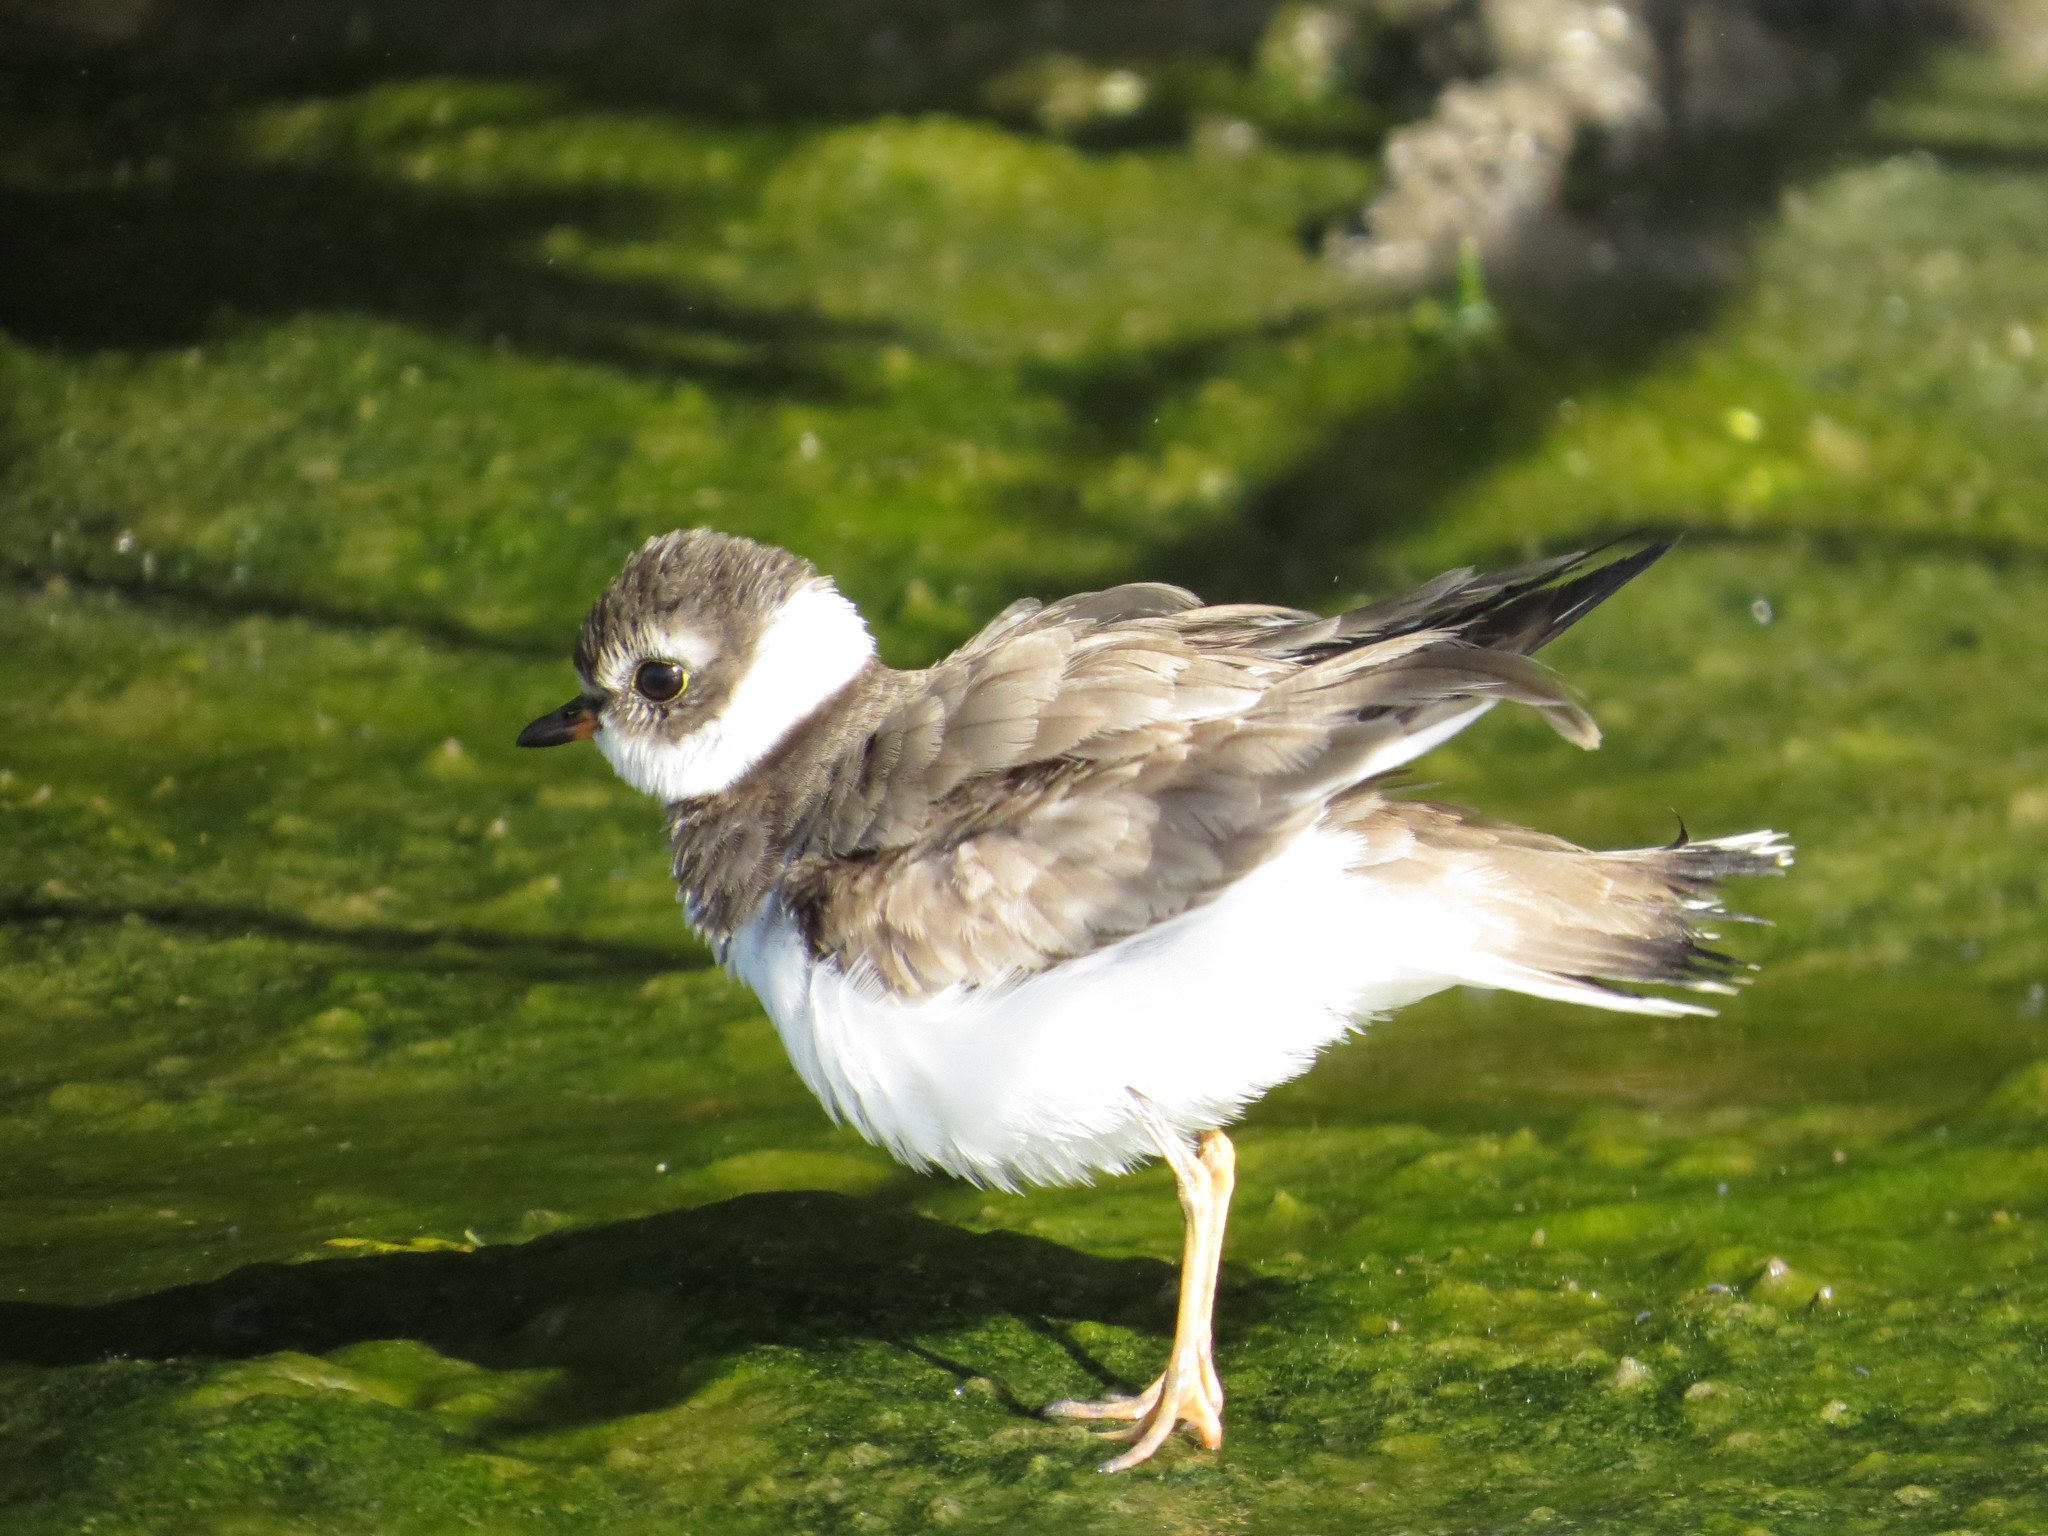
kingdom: Animalia
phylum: Chordata
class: Aves
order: Charadriiformes
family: Charadriidae
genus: Charadrius
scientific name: Charadrius semipalmatus
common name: Semipalmated plover
